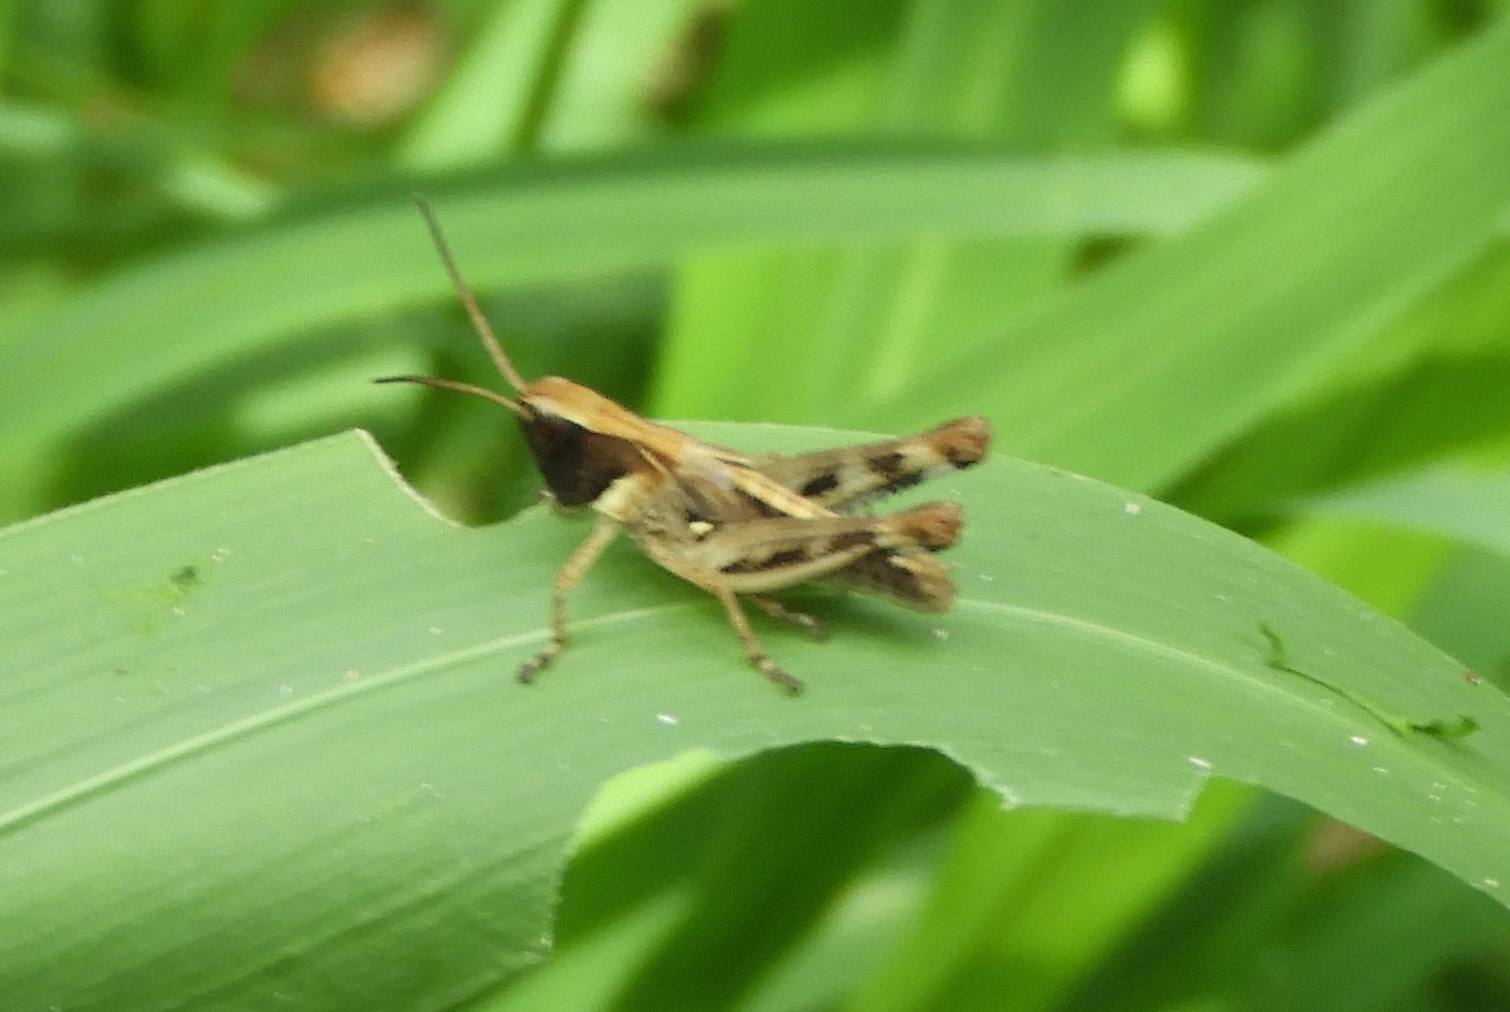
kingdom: Animalia
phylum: Arthropoda
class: Insecta
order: Orthoptera
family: Acrididae
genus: Boopedon
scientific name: Boopedon flaviventris
